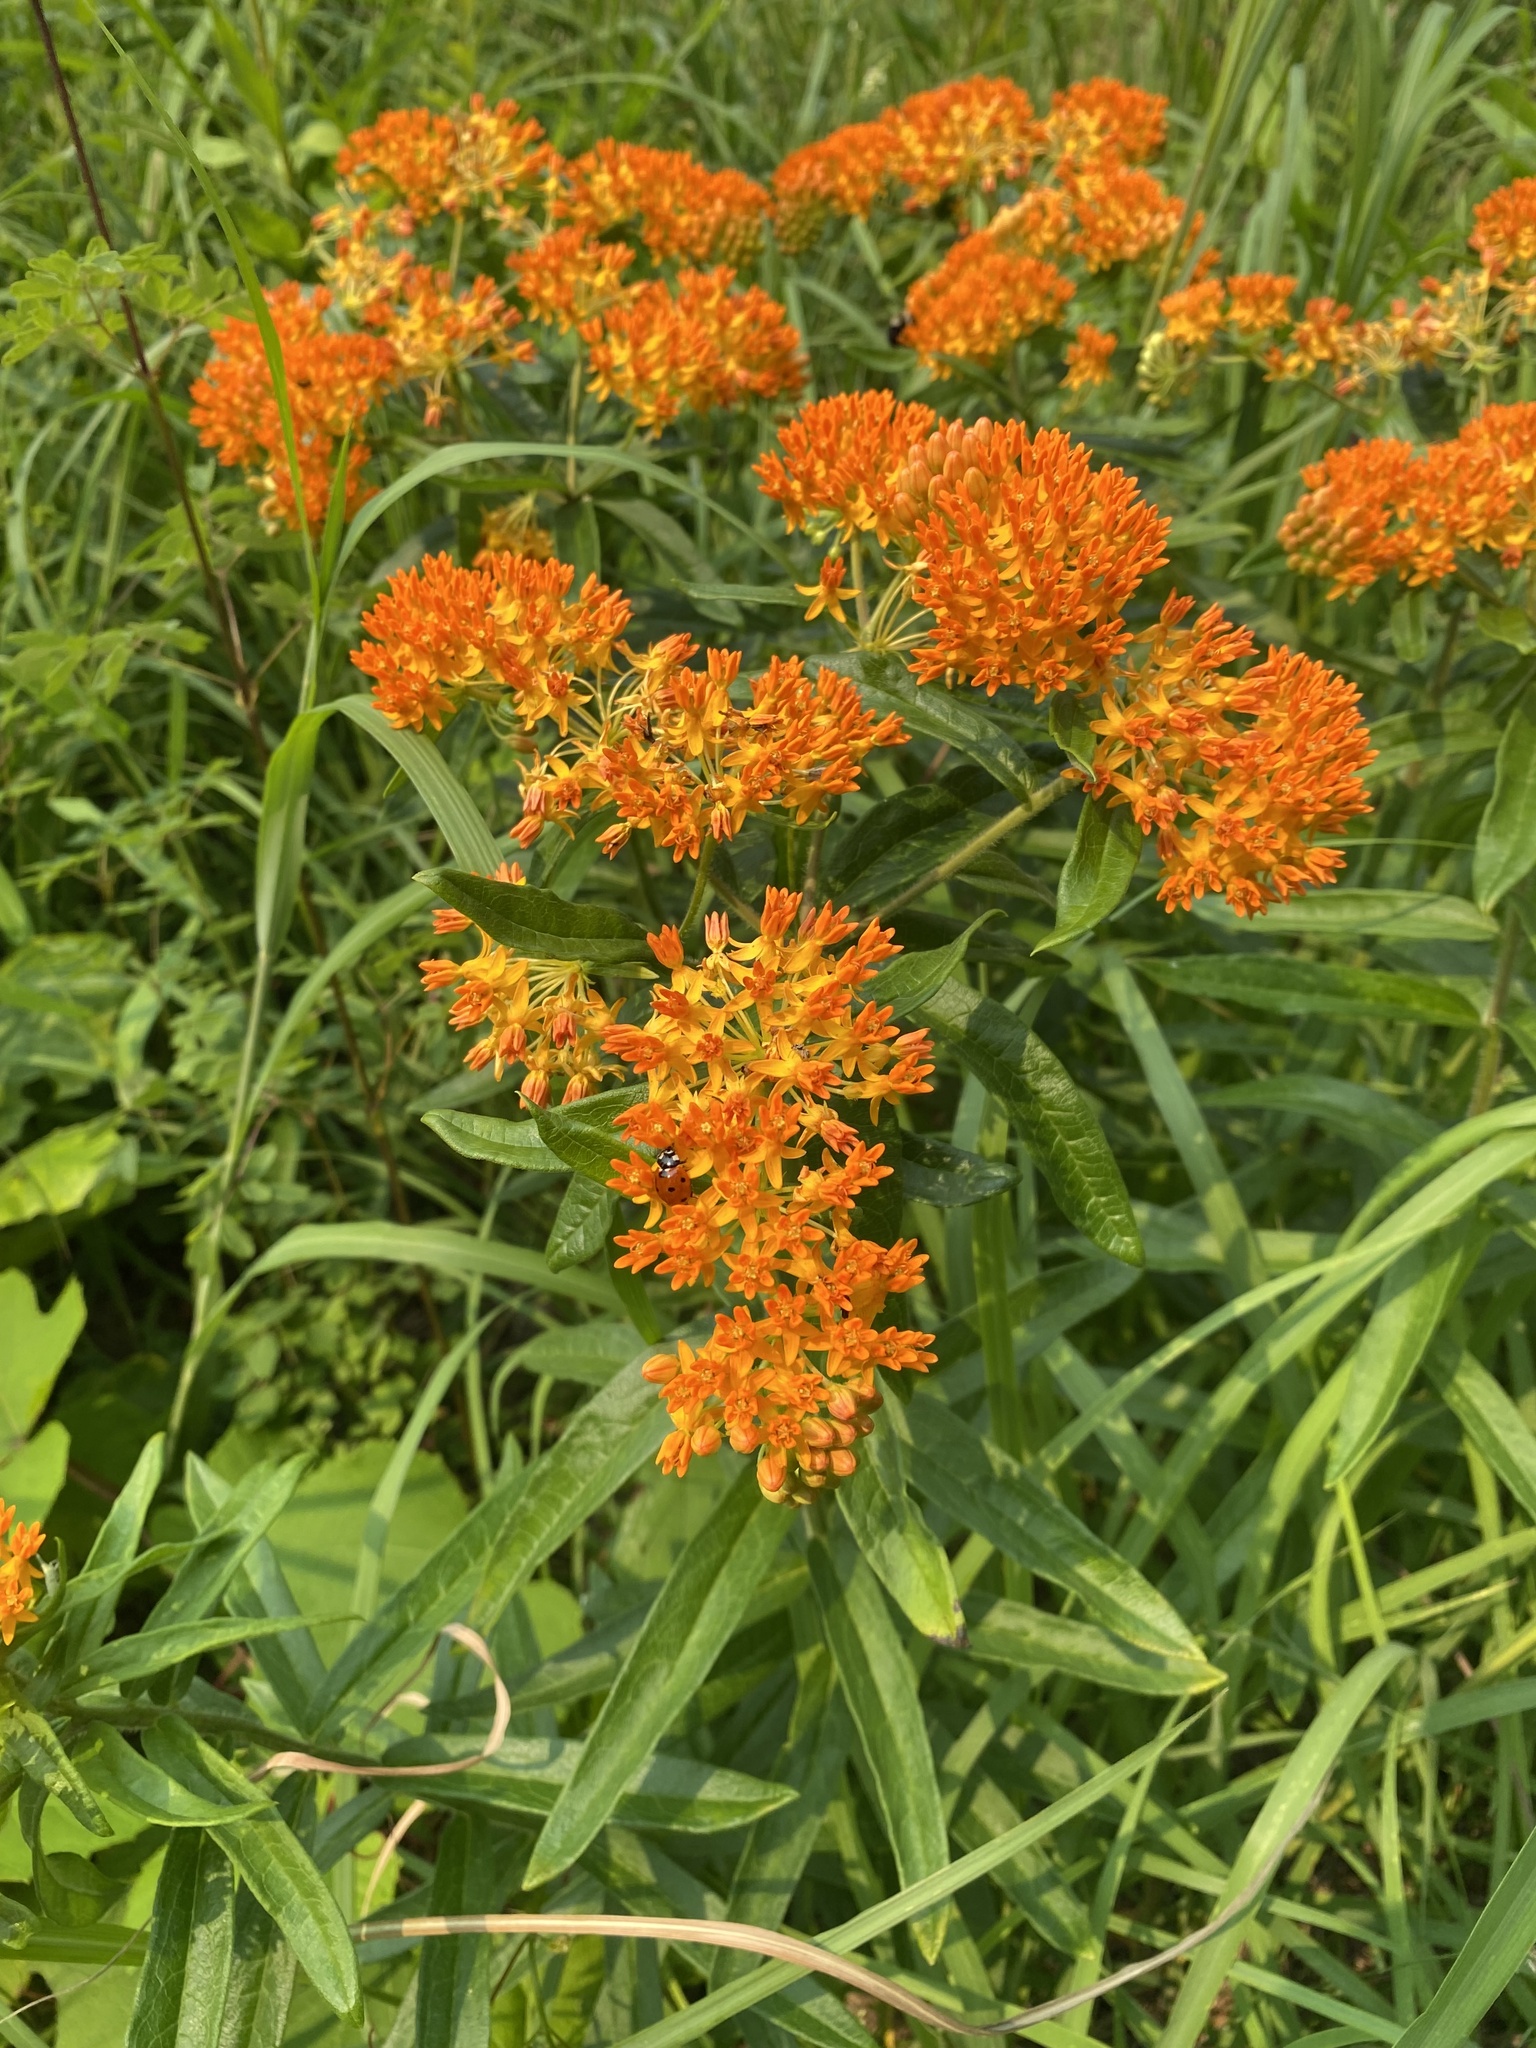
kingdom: Plantae
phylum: Tracheophyta
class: Magnoliopsida
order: Gentianales
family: Apocynaceae
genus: Asclepias
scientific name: Asclepias tuberosa
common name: Butterfly milkweed
